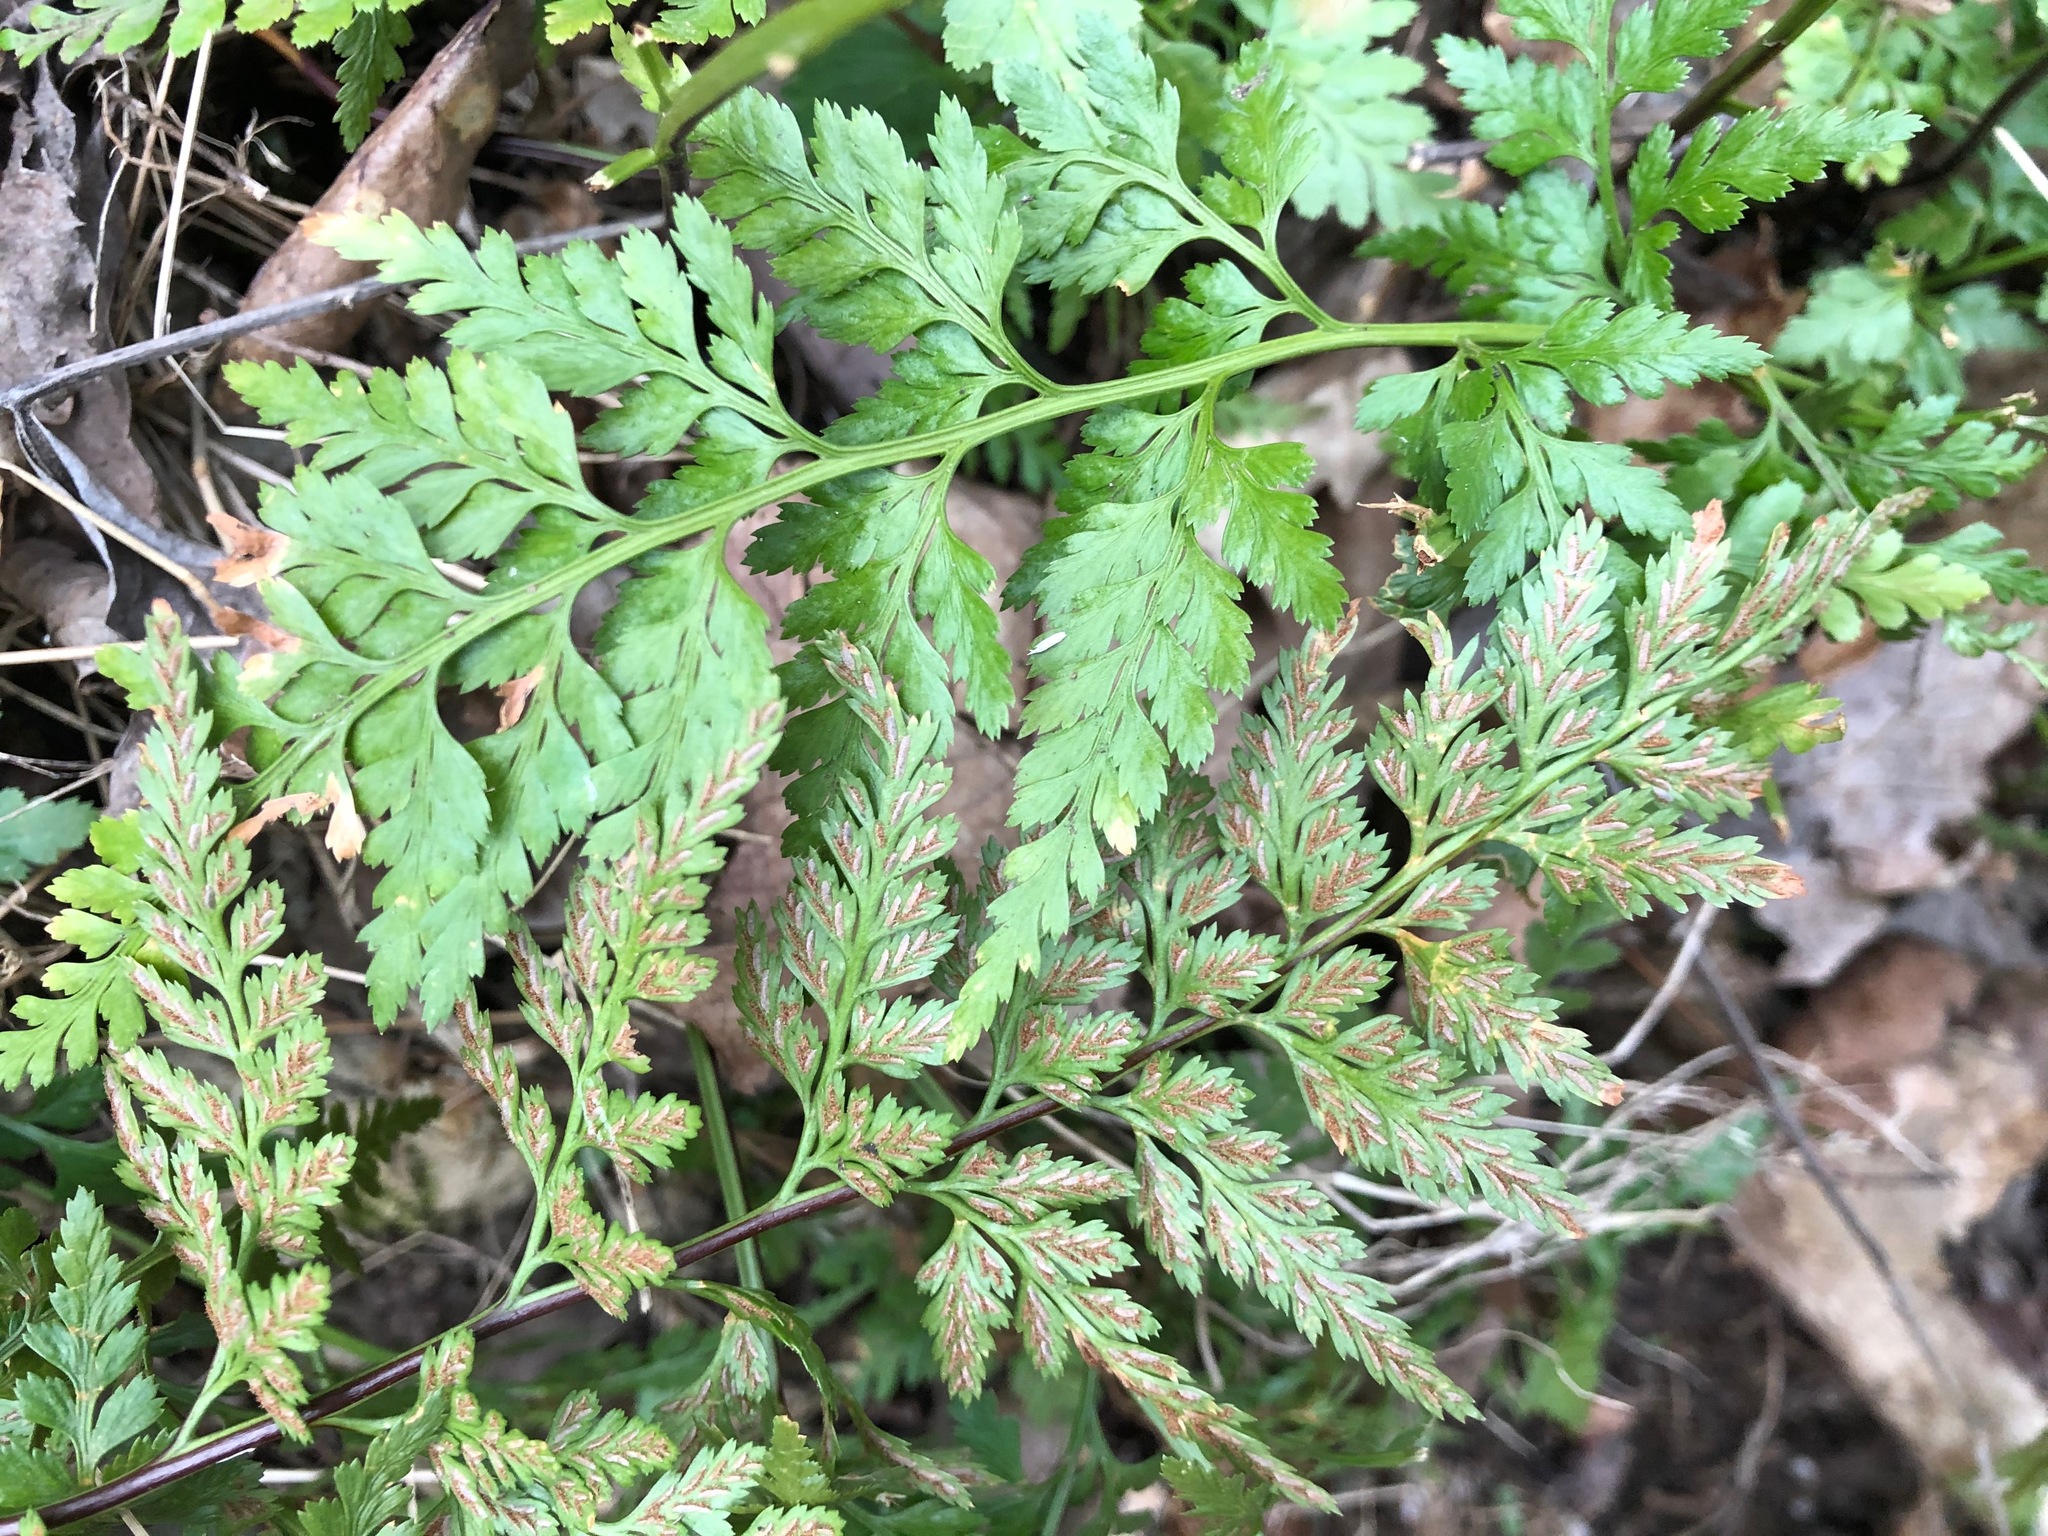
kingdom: Plantae
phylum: Tracheophyta
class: Polypodiopsida
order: Polypodiales
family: Aspleniaceae
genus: Asplenium
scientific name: Asplenium adiantum-nigrum
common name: Black spleenwort
